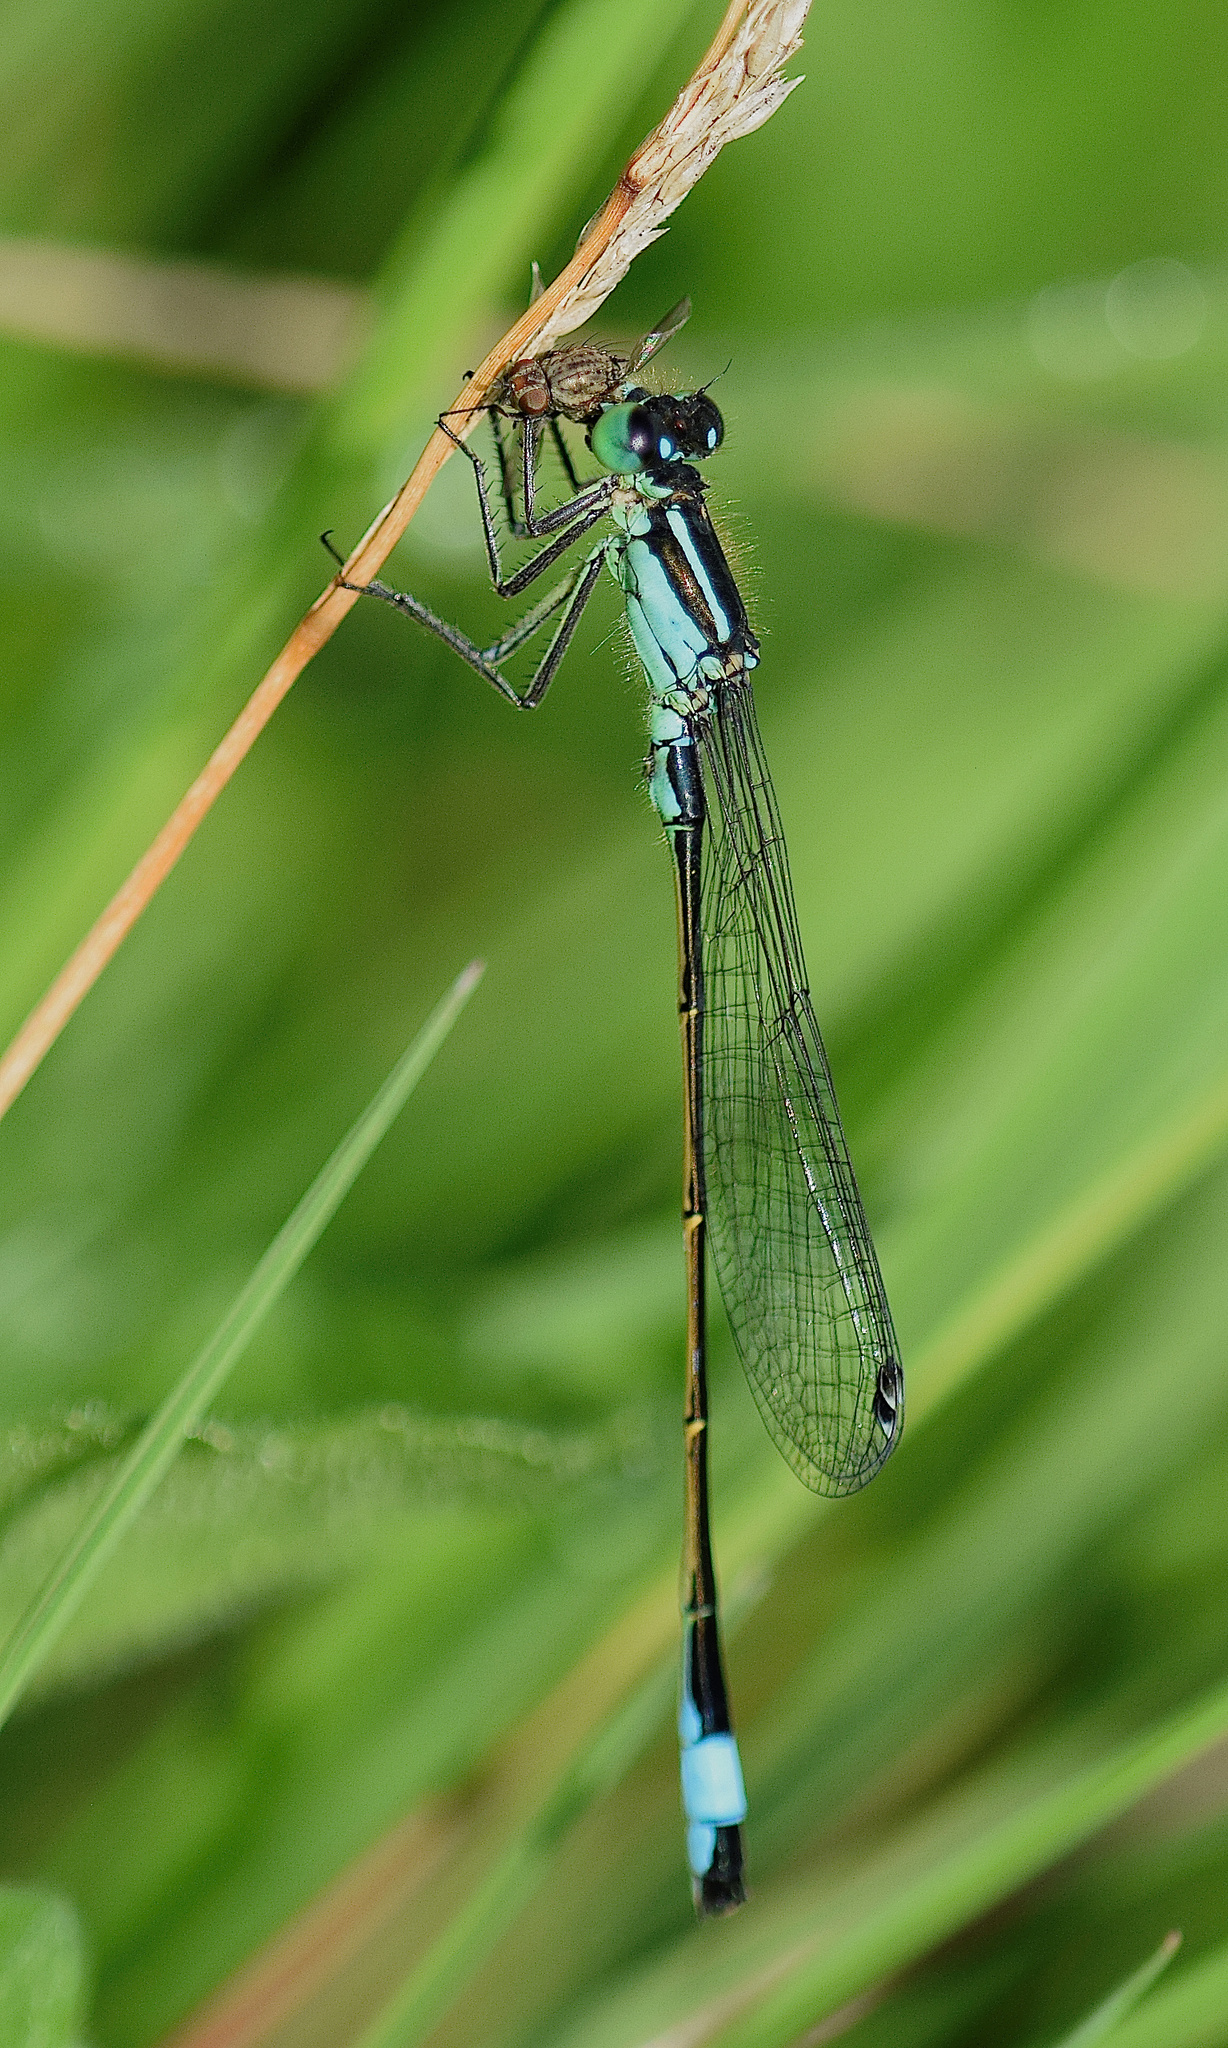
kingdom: Animalia
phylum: Arthropoda
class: Insecta
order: Odonata
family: Coenagrionidae
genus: Ischnura
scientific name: Ischnura elegans
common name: Blue-tailed damselfly
